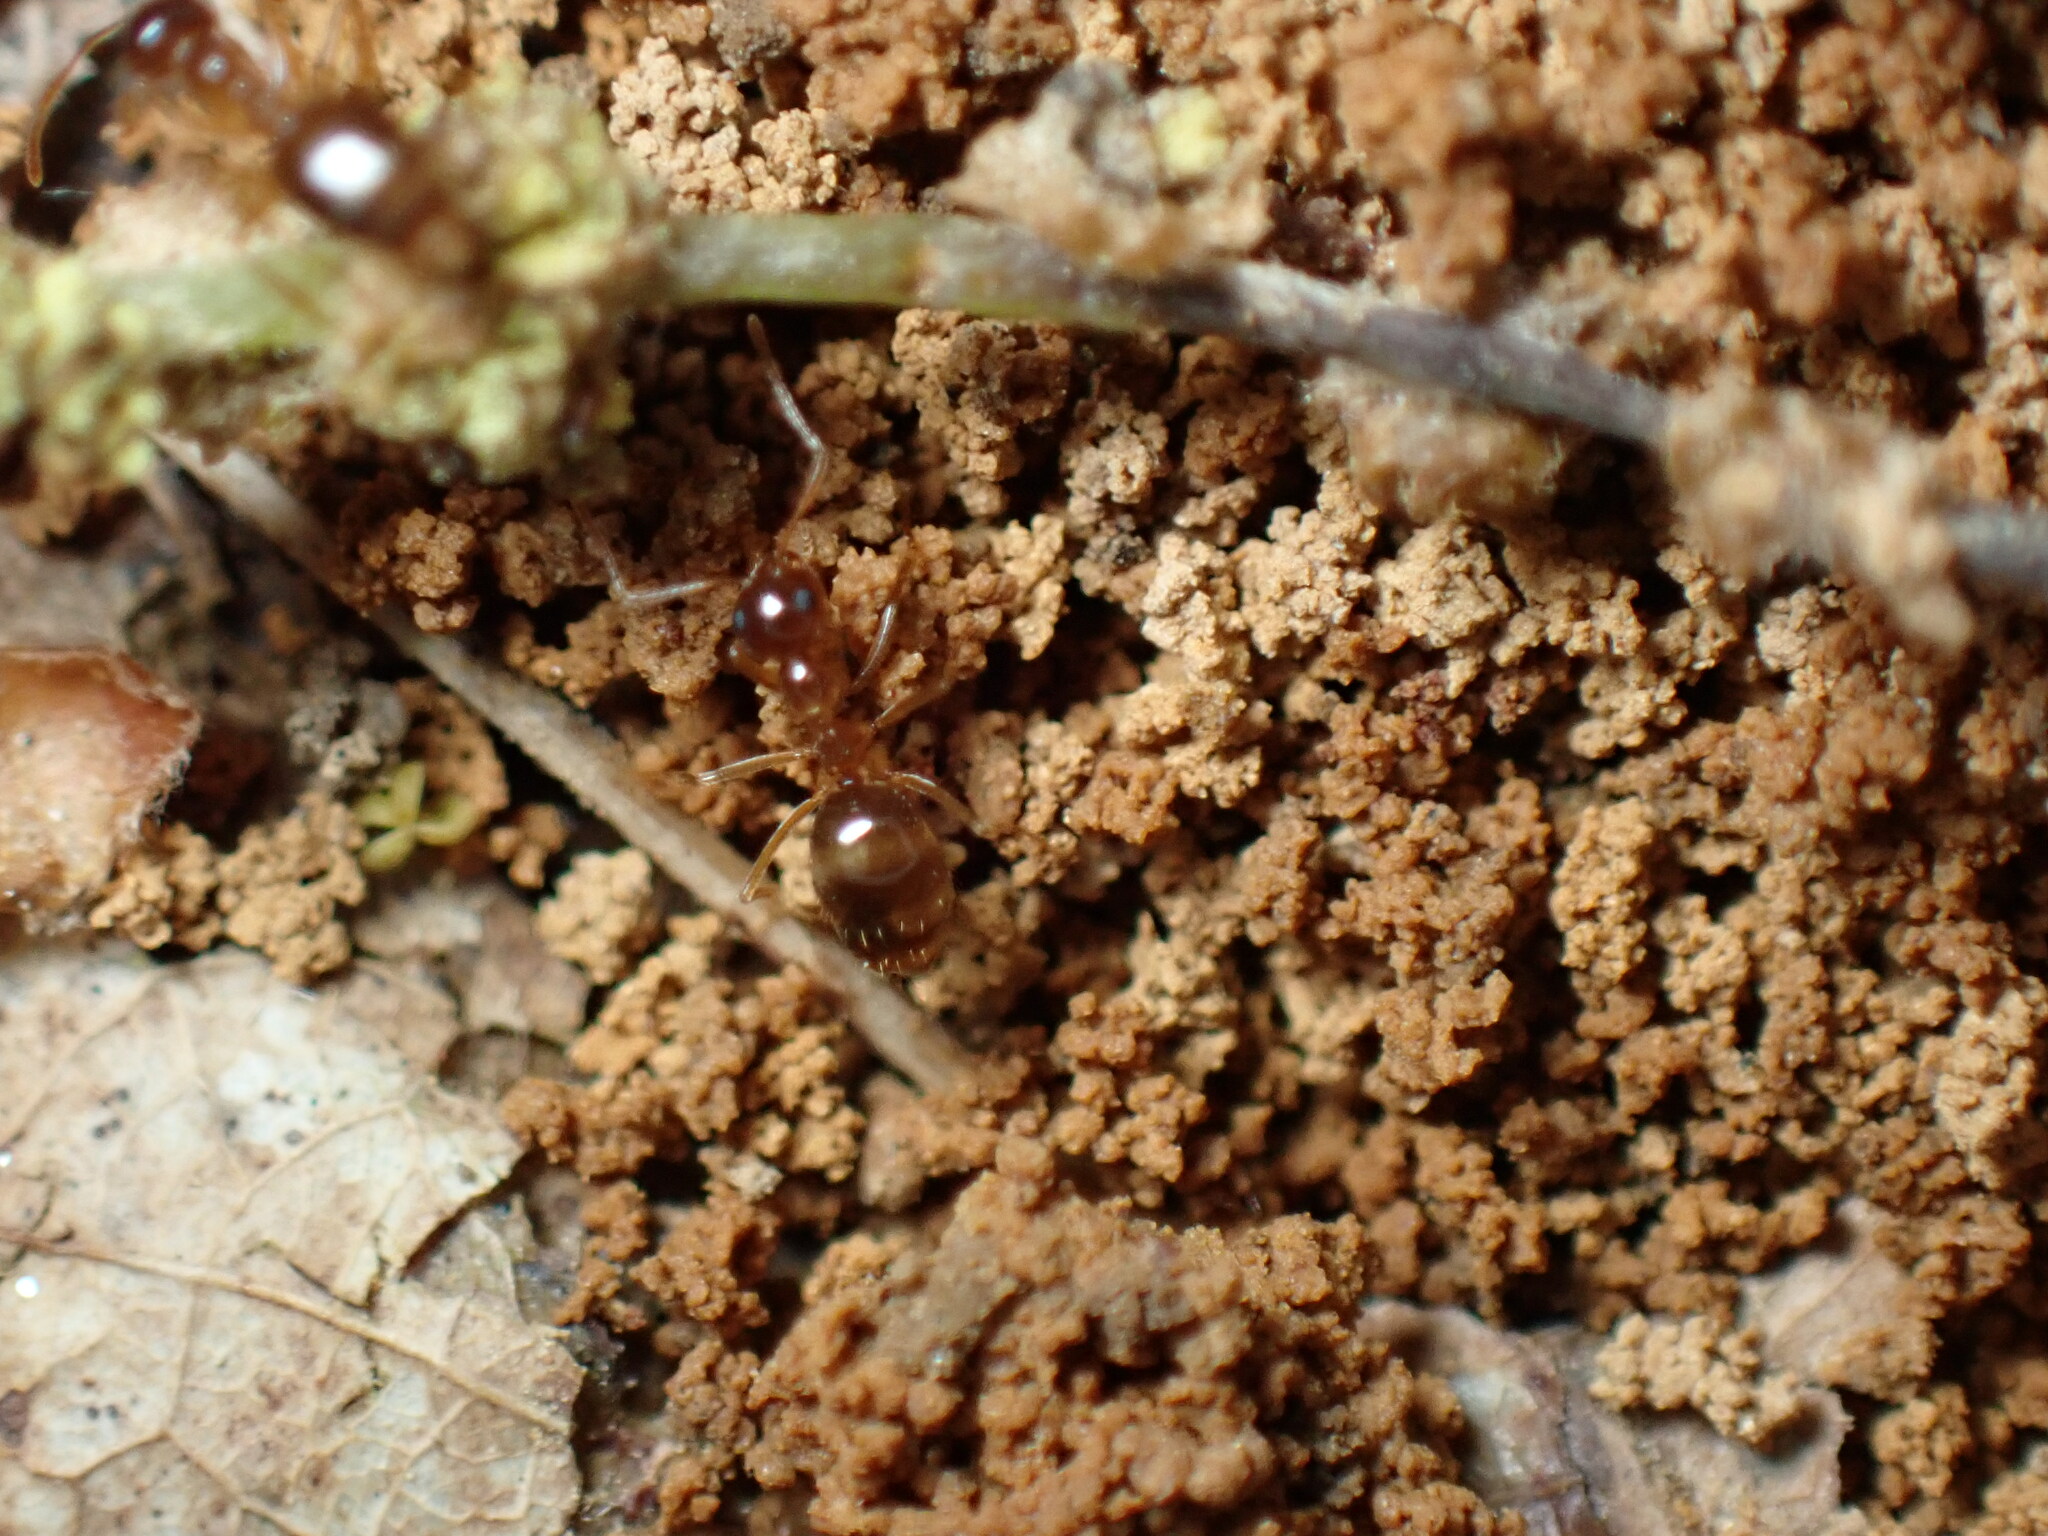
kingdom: Animalia
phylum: Arthropoda
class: Insecta
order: Hymenoptera
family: Formicidae
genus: Prenolepis
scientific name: Prenolepis imparis
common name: Small honey ant
